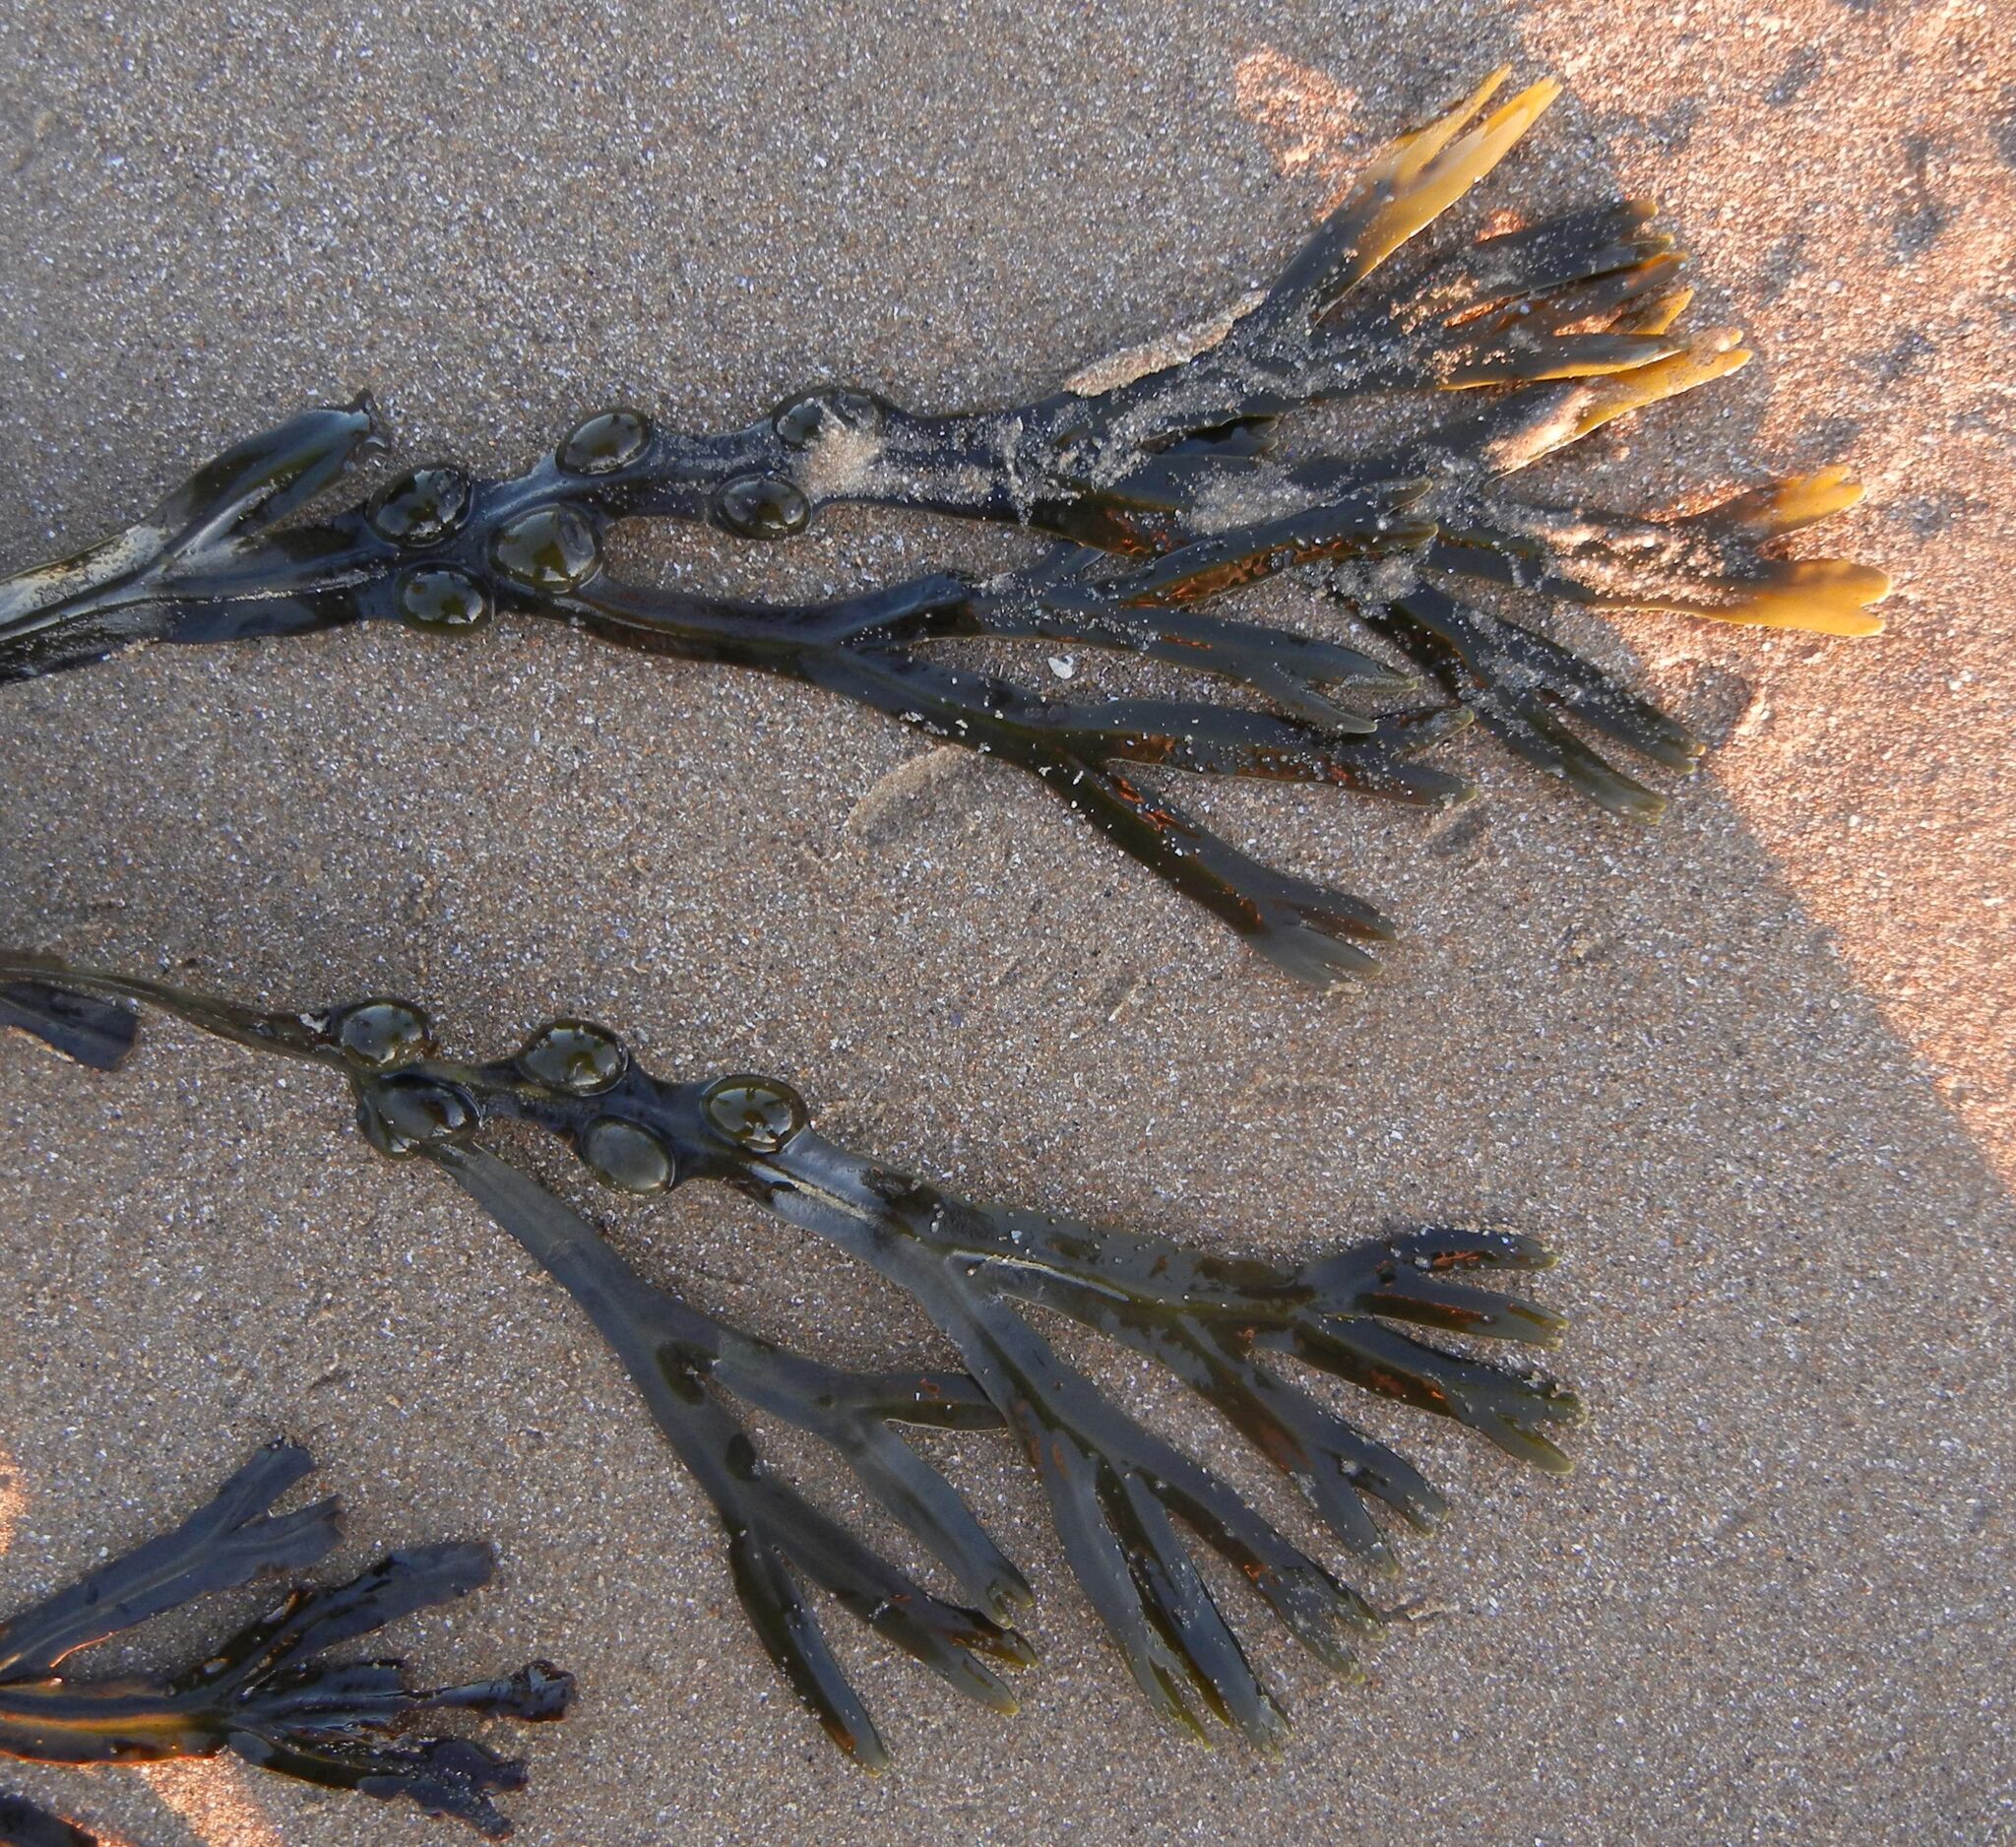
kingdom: Chromista
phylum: Ochrophyta
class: Phaeophyceae
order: Fucales
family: Fucaceae
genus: Fucus
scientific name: Fucus vesiculosus
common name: Bladder wrack
